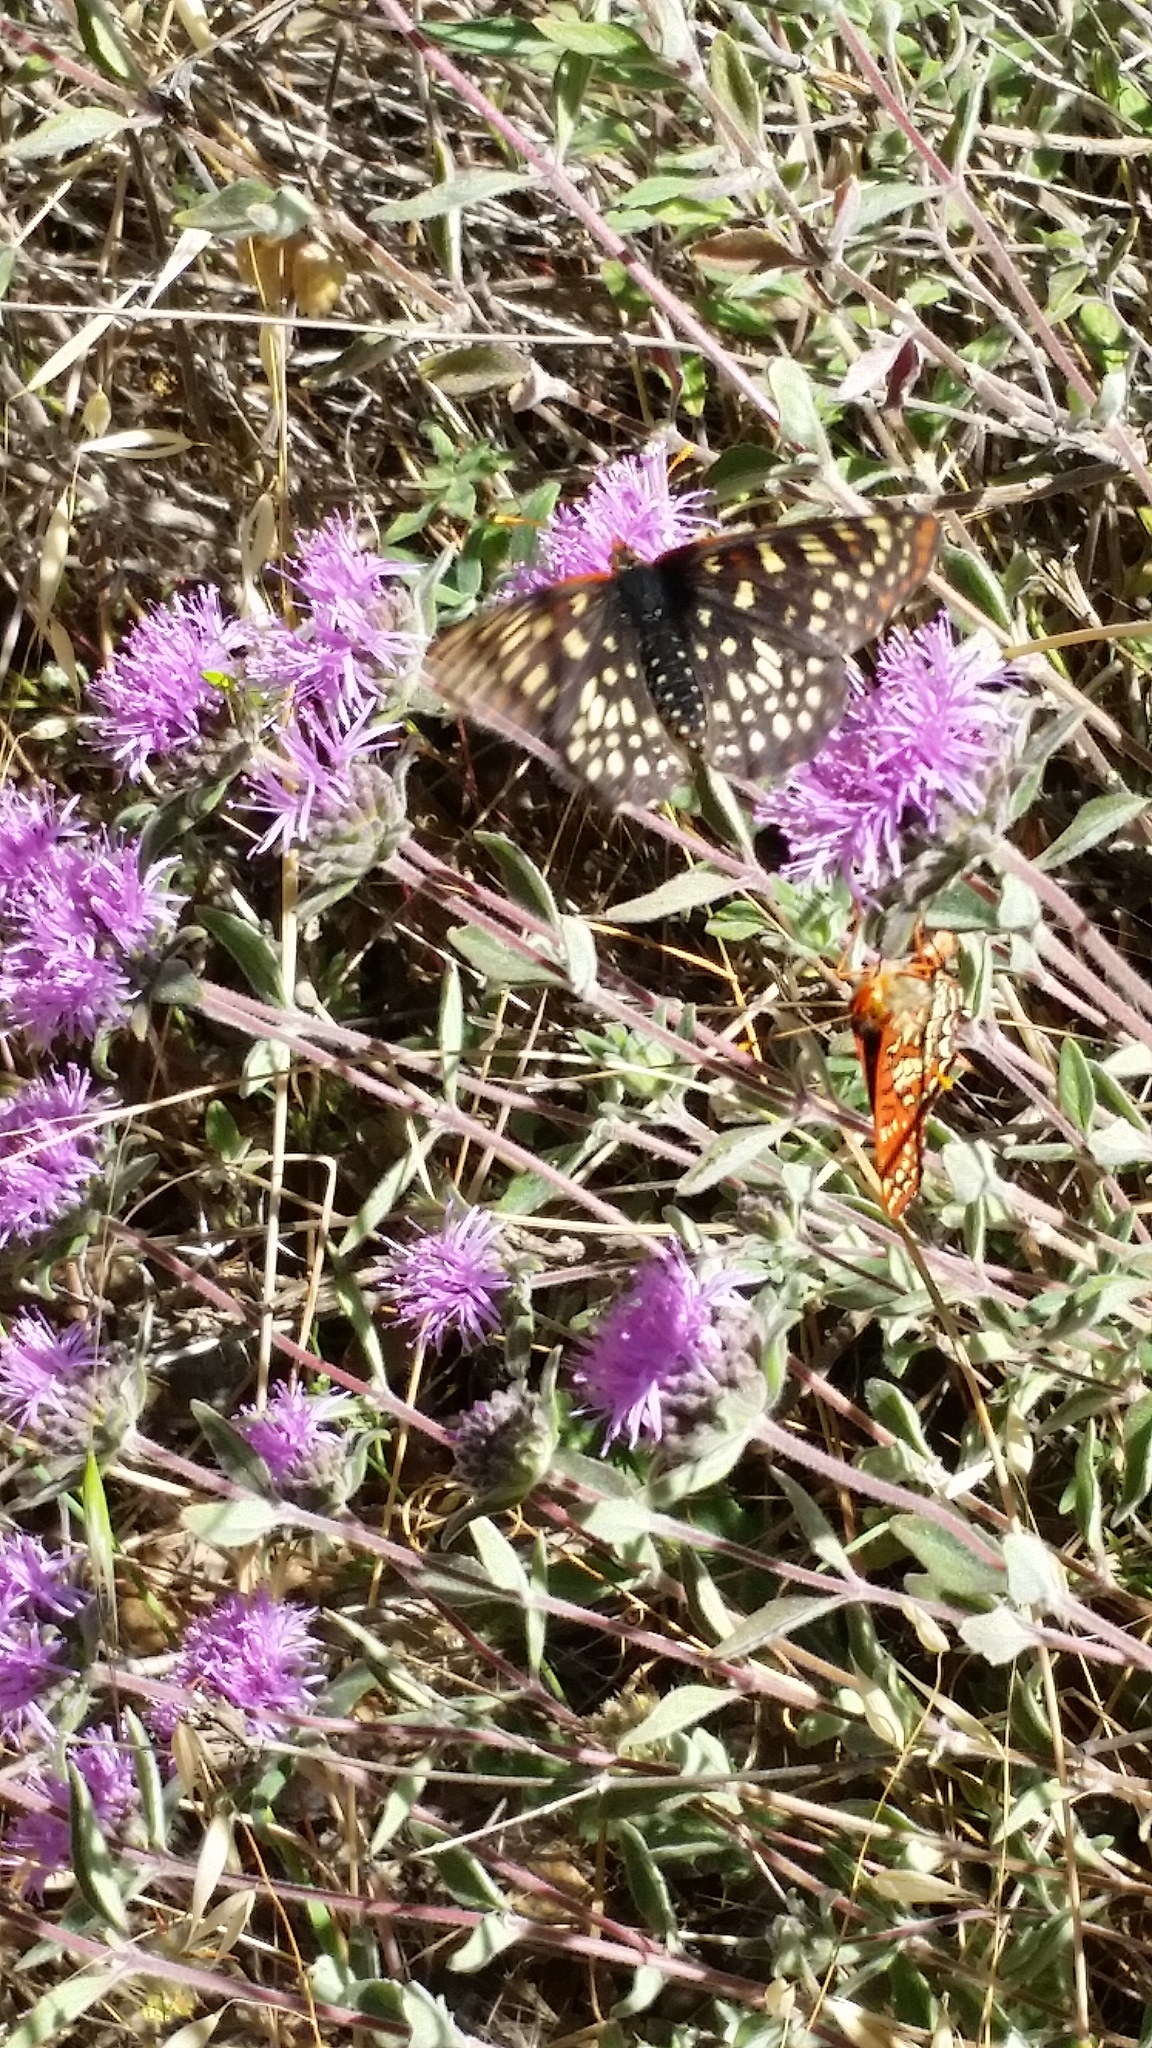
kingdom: Animalia
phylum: Arthropoda
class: Insecta
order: Lepidoptera
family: Nymphalidae
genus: Occidryas
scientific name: Occidryas chalcedona
